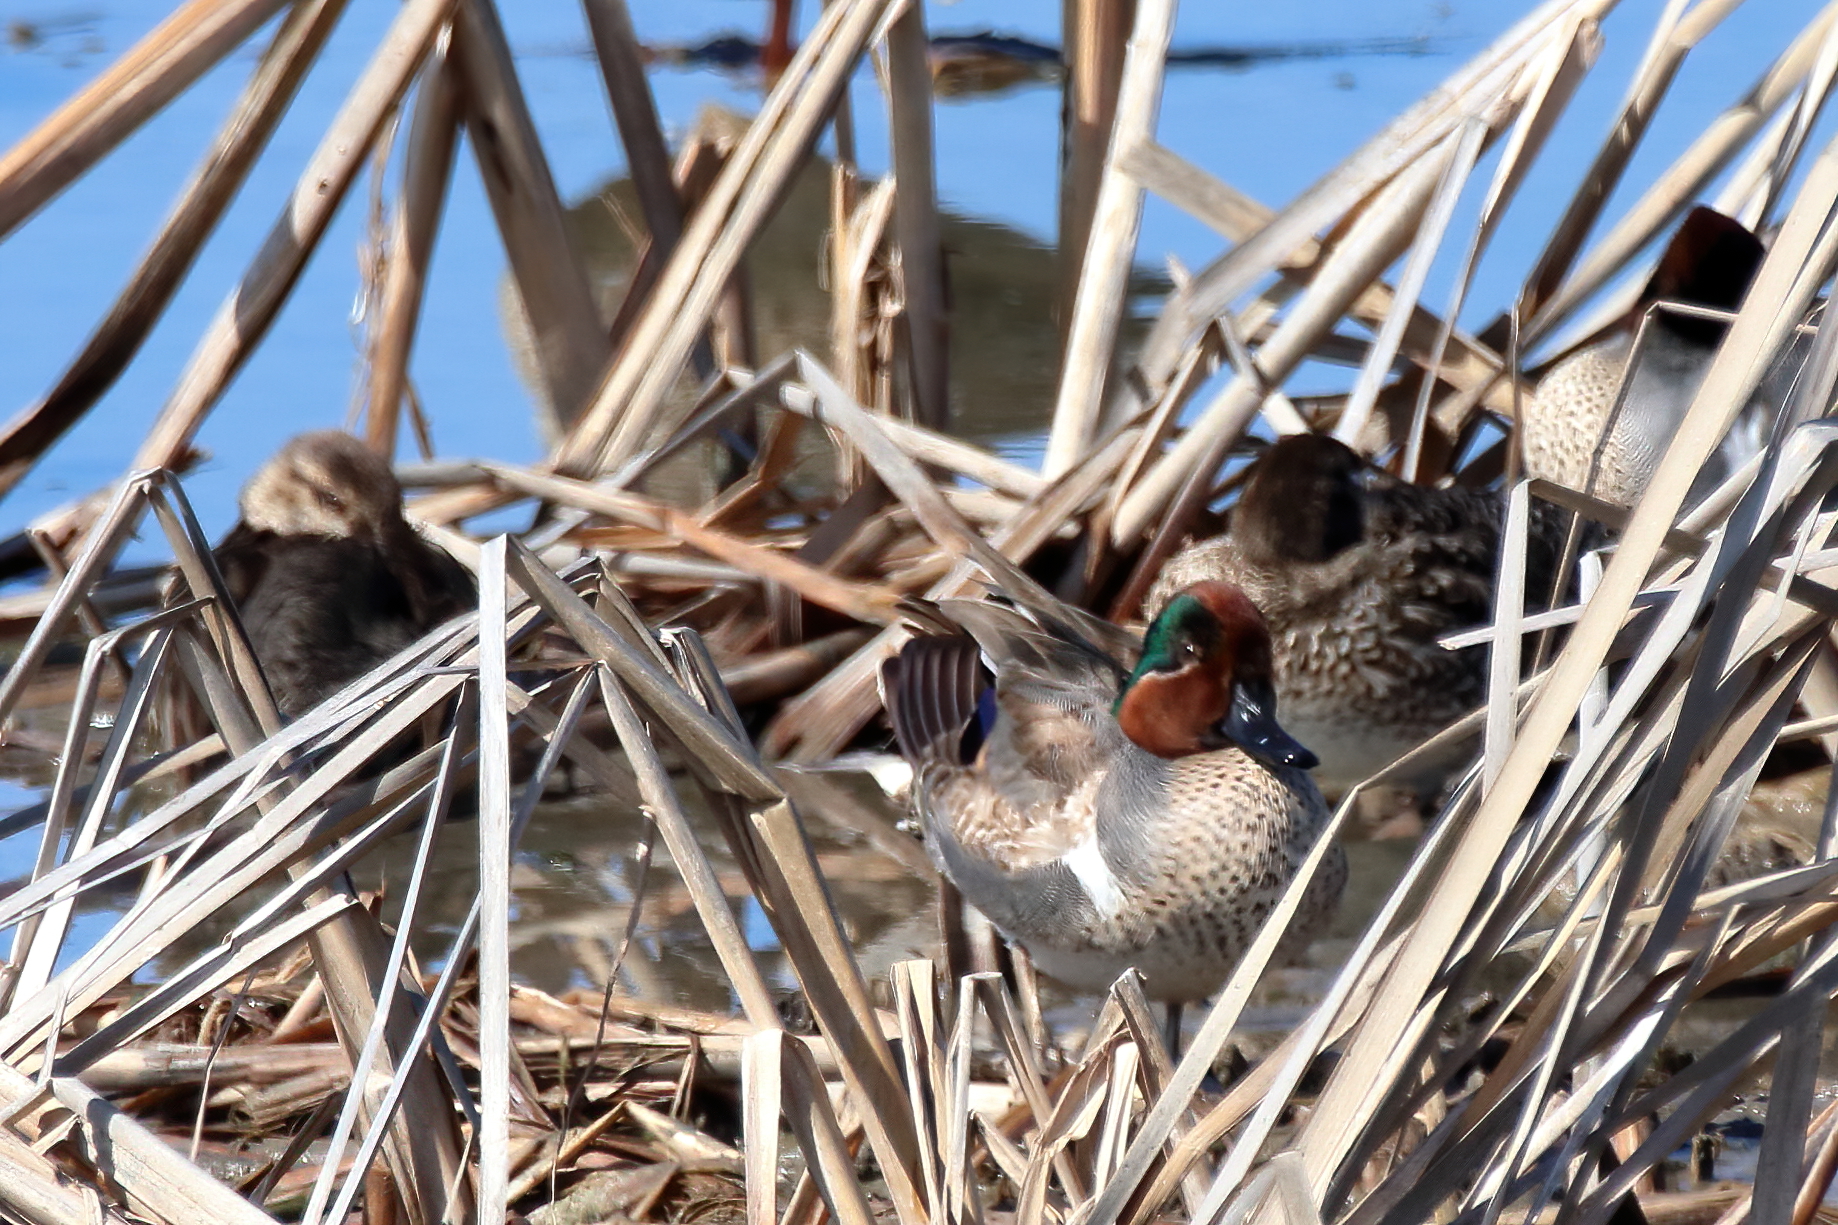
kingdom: Animalia
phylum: Chordata
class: Aves
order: Anseriformes
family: Anatidae
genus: Anas
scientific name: Anas crecca
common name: Eurasian teal
